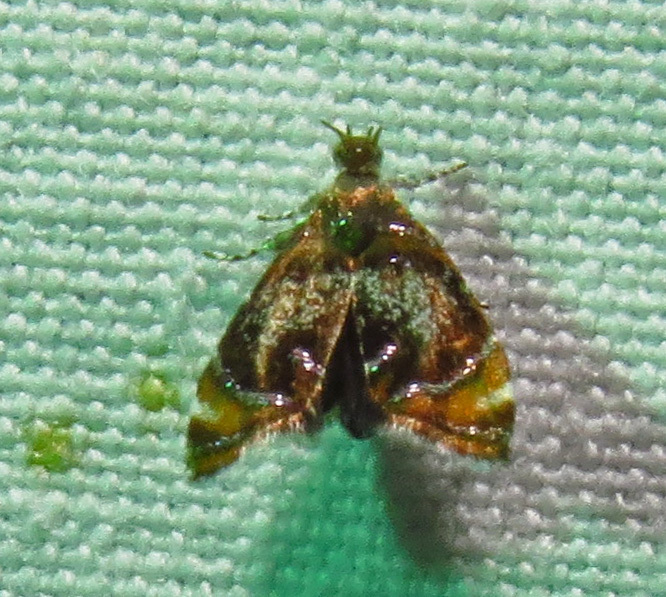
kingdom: Animalia
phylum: Arthropoda
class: Insecta
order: Lepidoptera
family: Choreutidae
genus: Prochoreutis
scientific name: Prochoreutis inflatella
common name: Skullcap skeletonizer moth
